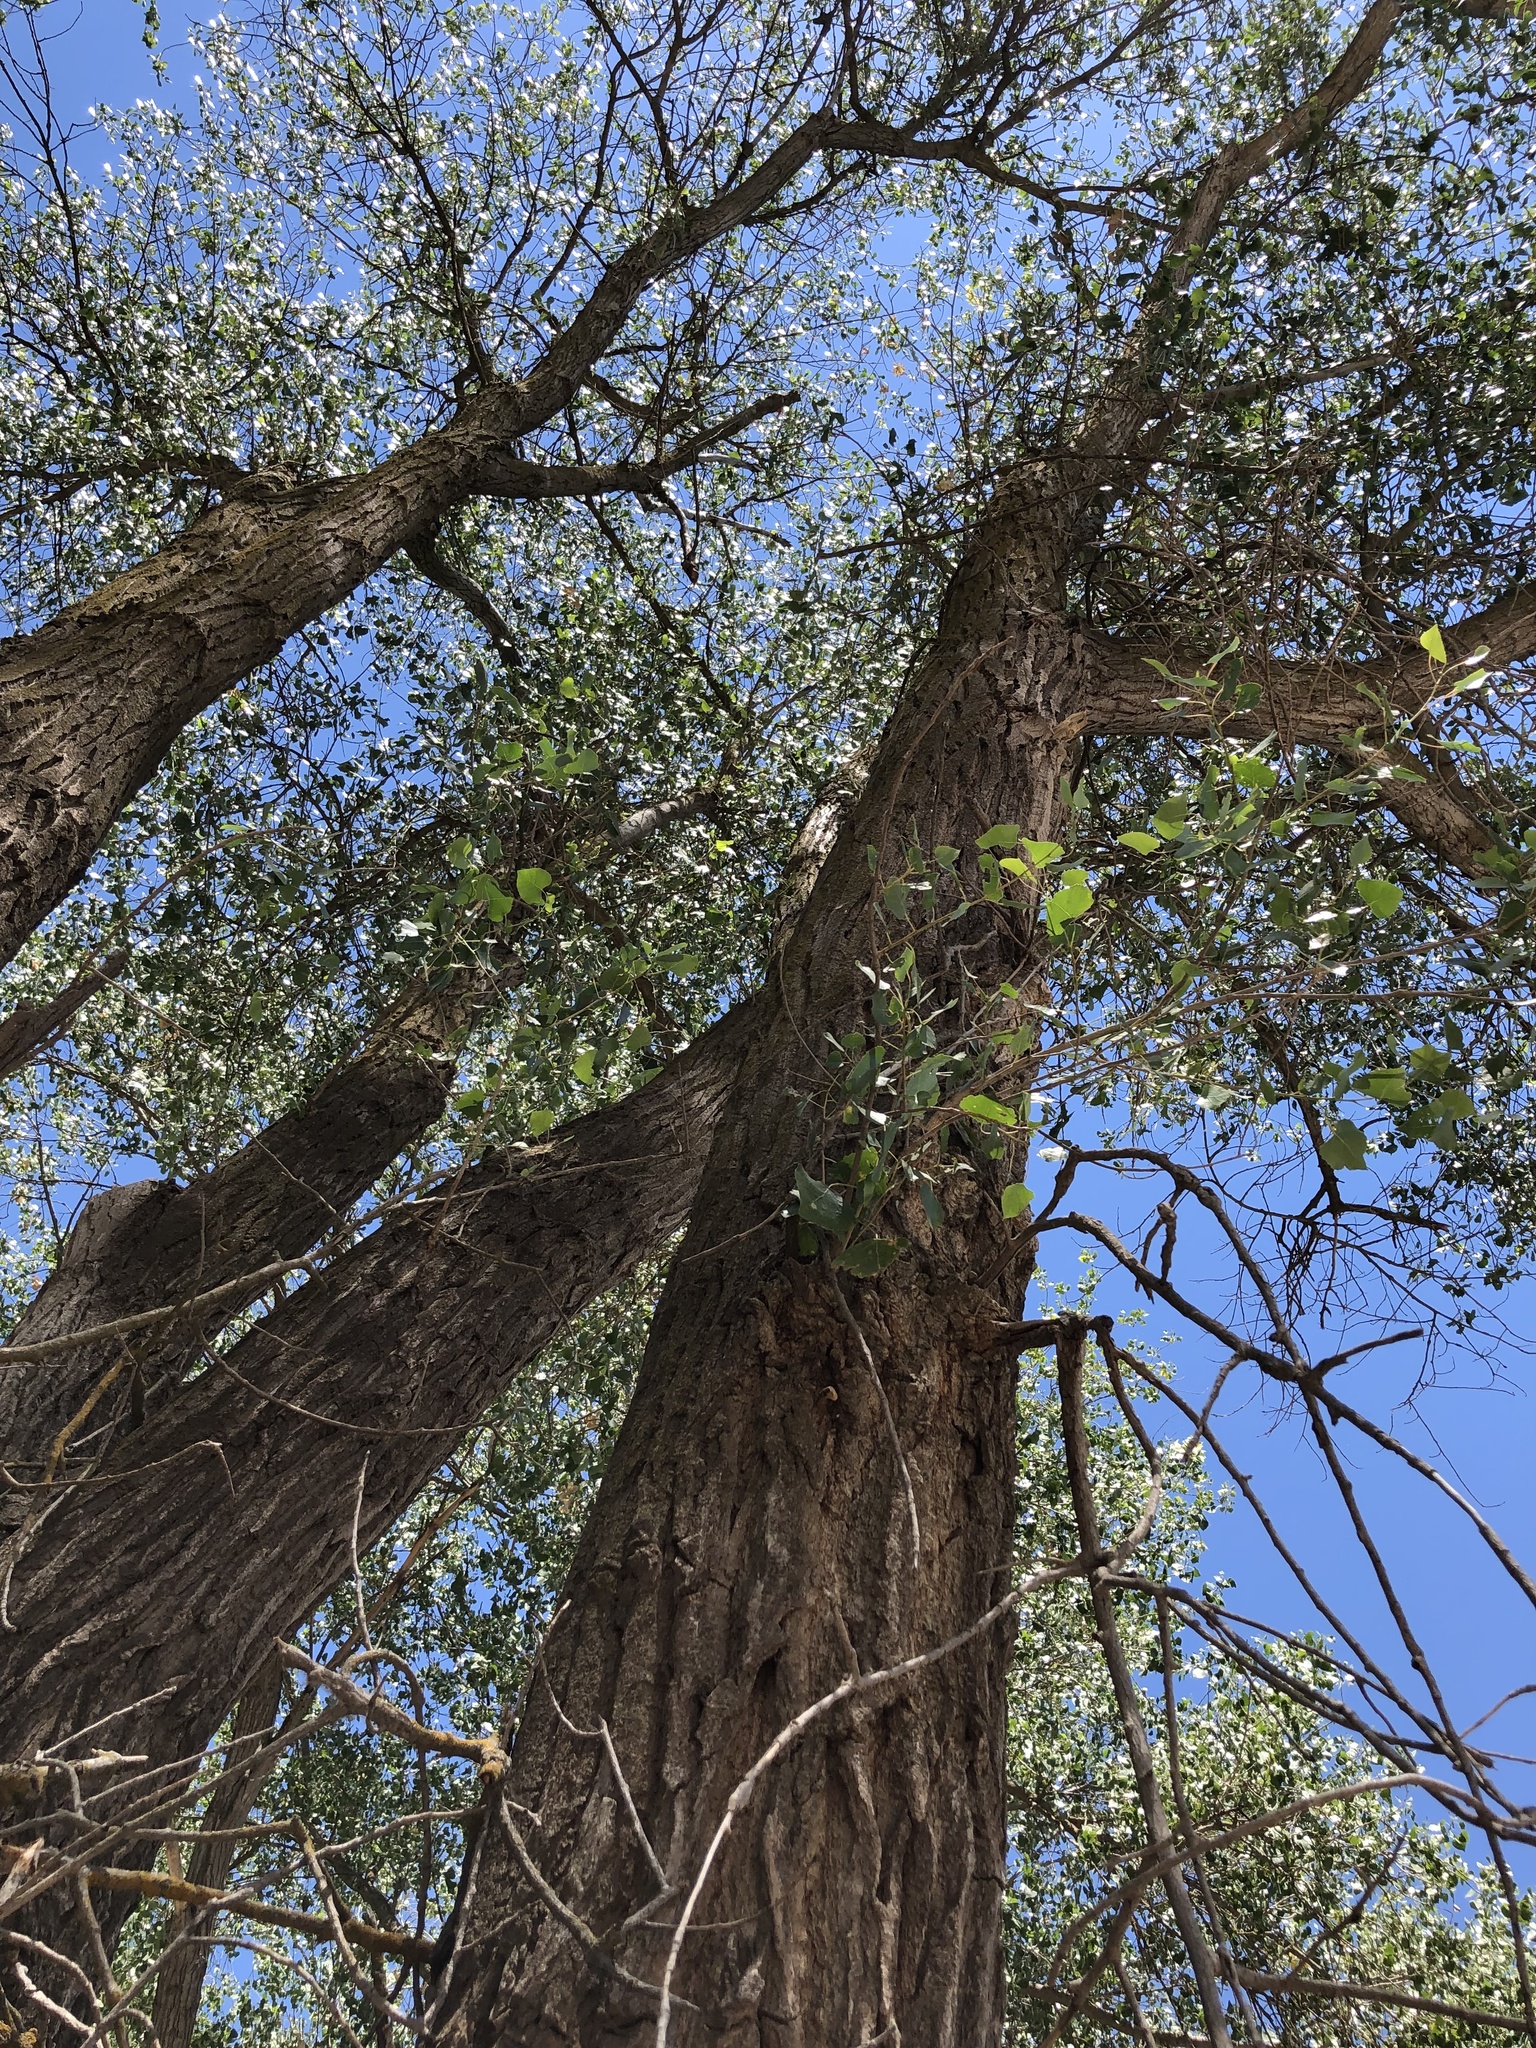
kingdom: Plantae
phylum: Tracheophyta
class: Magnoliopsida
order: Malpighiales
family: Salicaceae
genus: Populus
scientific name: Populus fremontii
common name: Fremont's cottonwood
